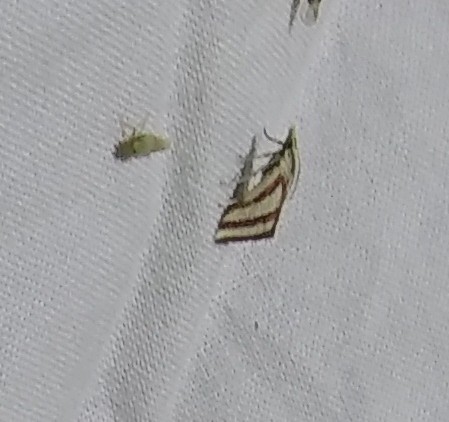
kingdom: Animalia
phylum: Arthropoda
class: Insecta
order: Lepidoptera
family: Crambidae
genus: Microtheoris
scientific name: Microtheoris vibicalis
